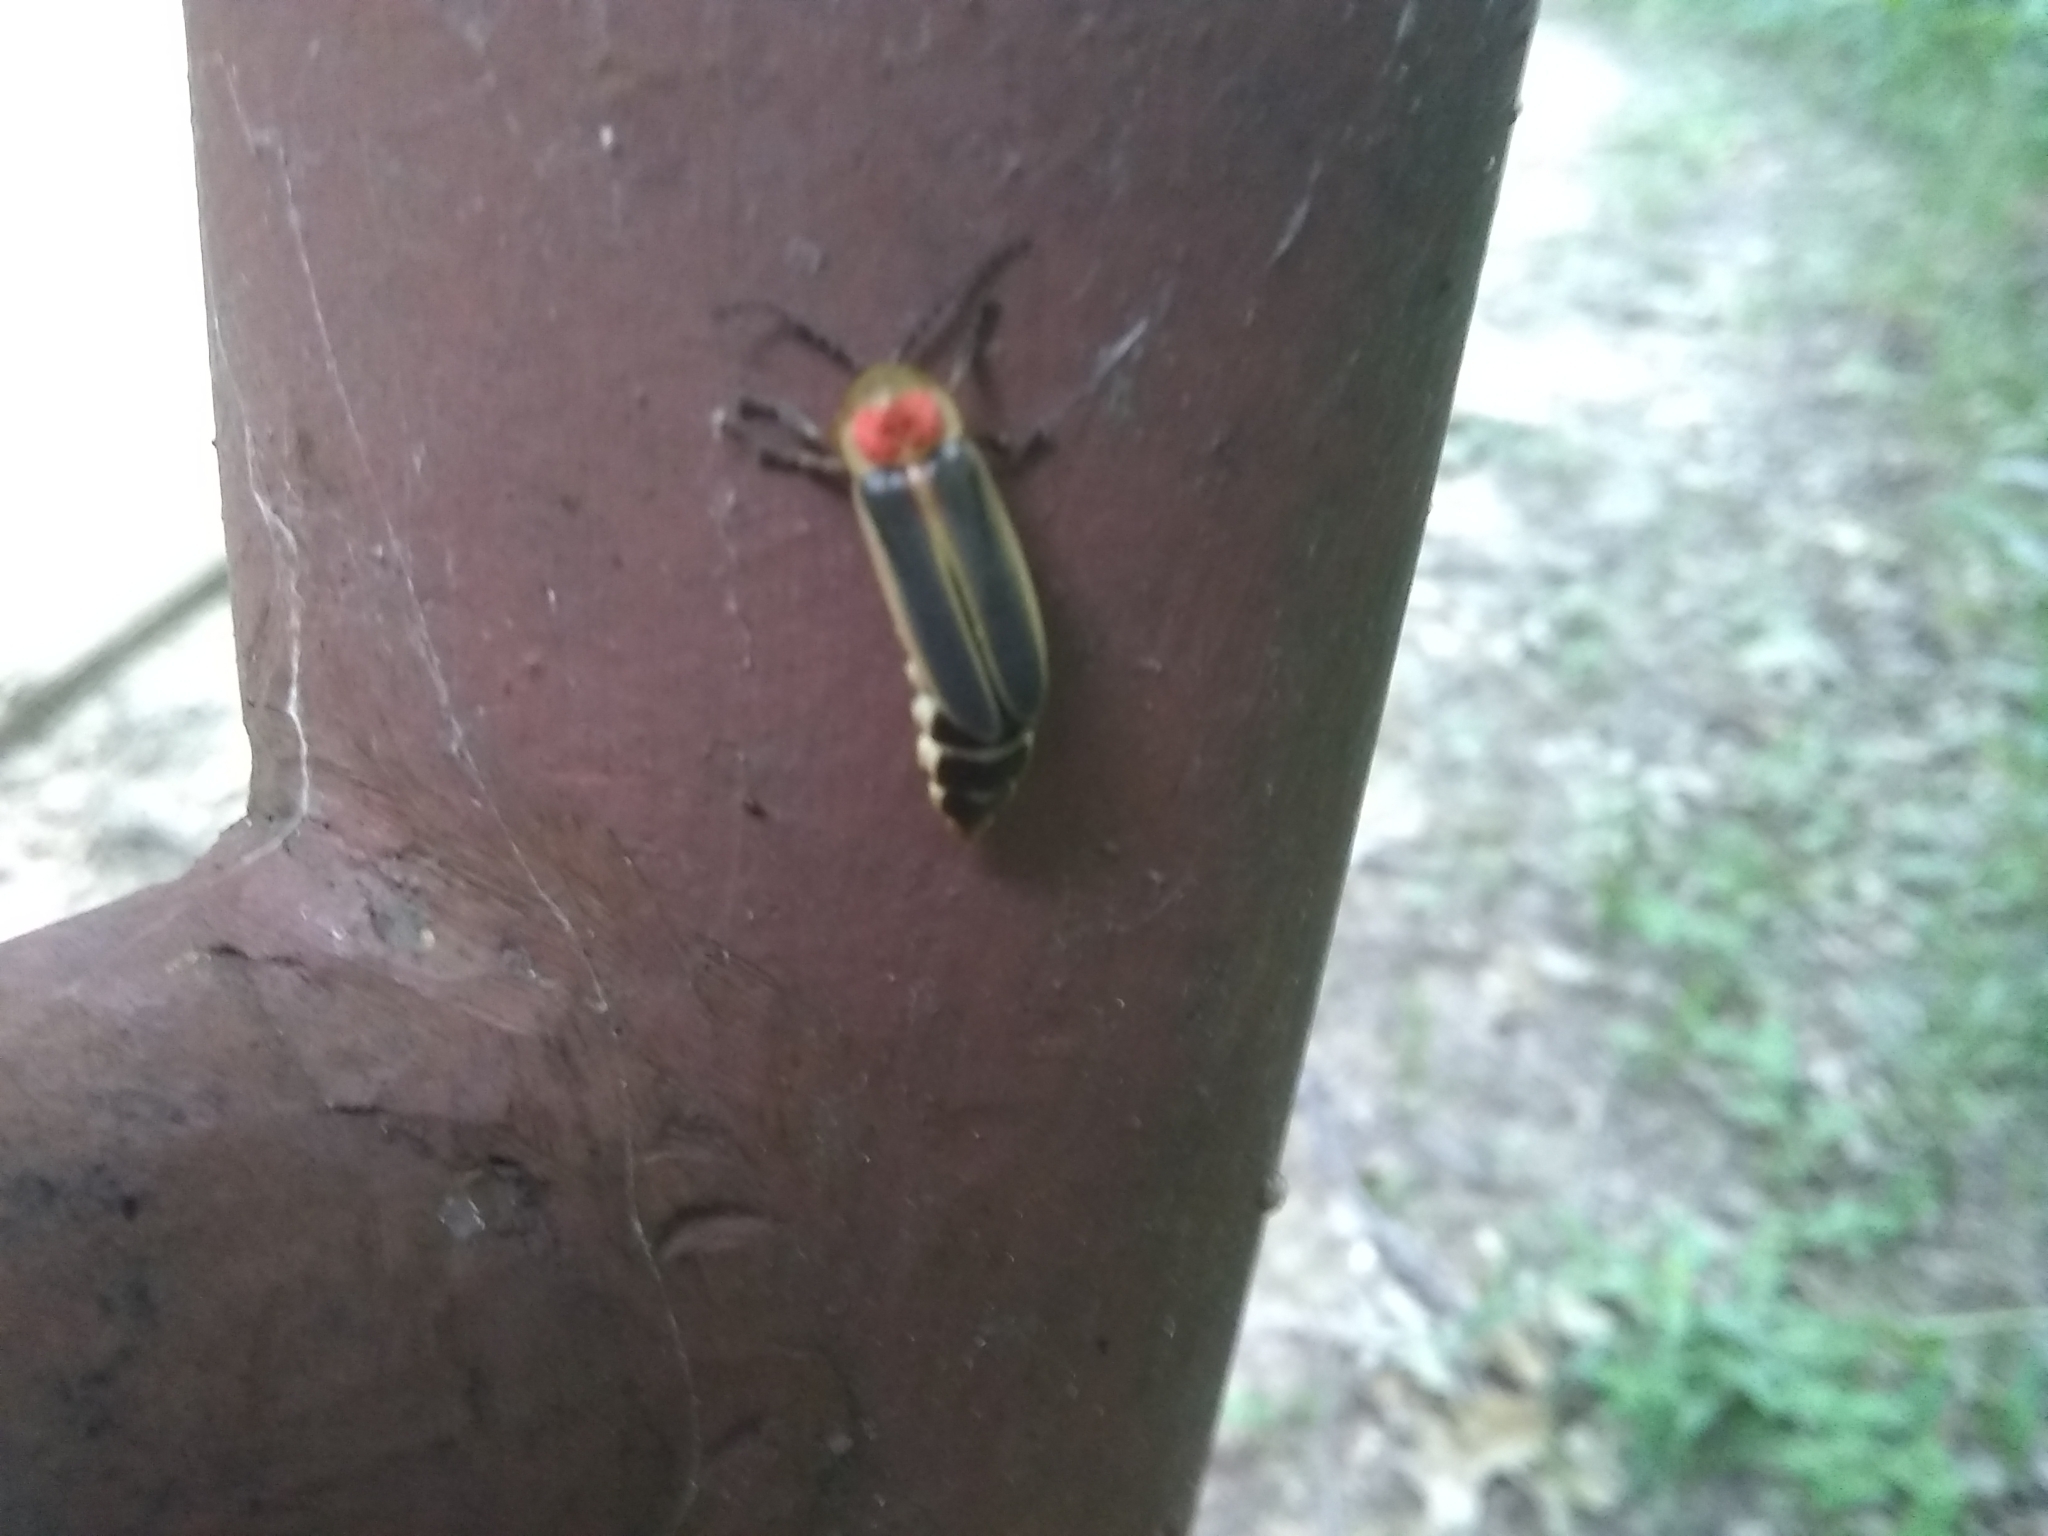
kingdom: Animalia
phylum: Arthropoda
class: Insecta
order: Coleoptera
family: Lampyridae
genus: Photinus
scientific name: Photinus pyralis
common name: Big dipper firefly
